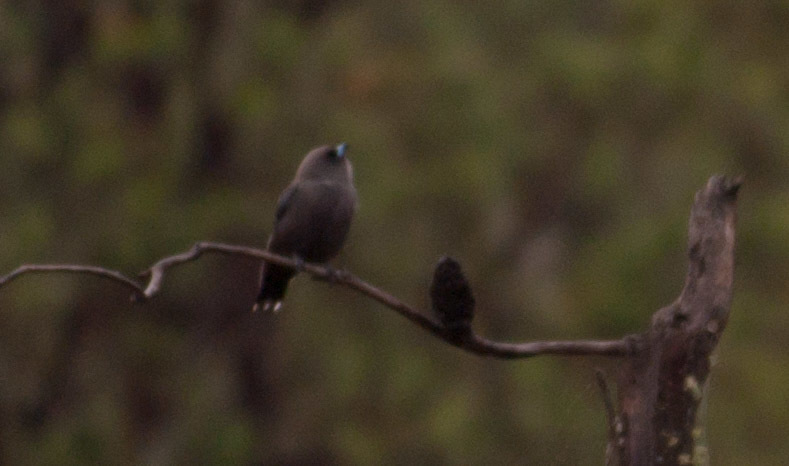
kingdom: Animalia
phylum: Chordata
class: Aves
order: Passeriformes
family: Artamidae
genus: Artamus
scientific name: Artamus cyanopterus
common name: Dusky woodswallow
